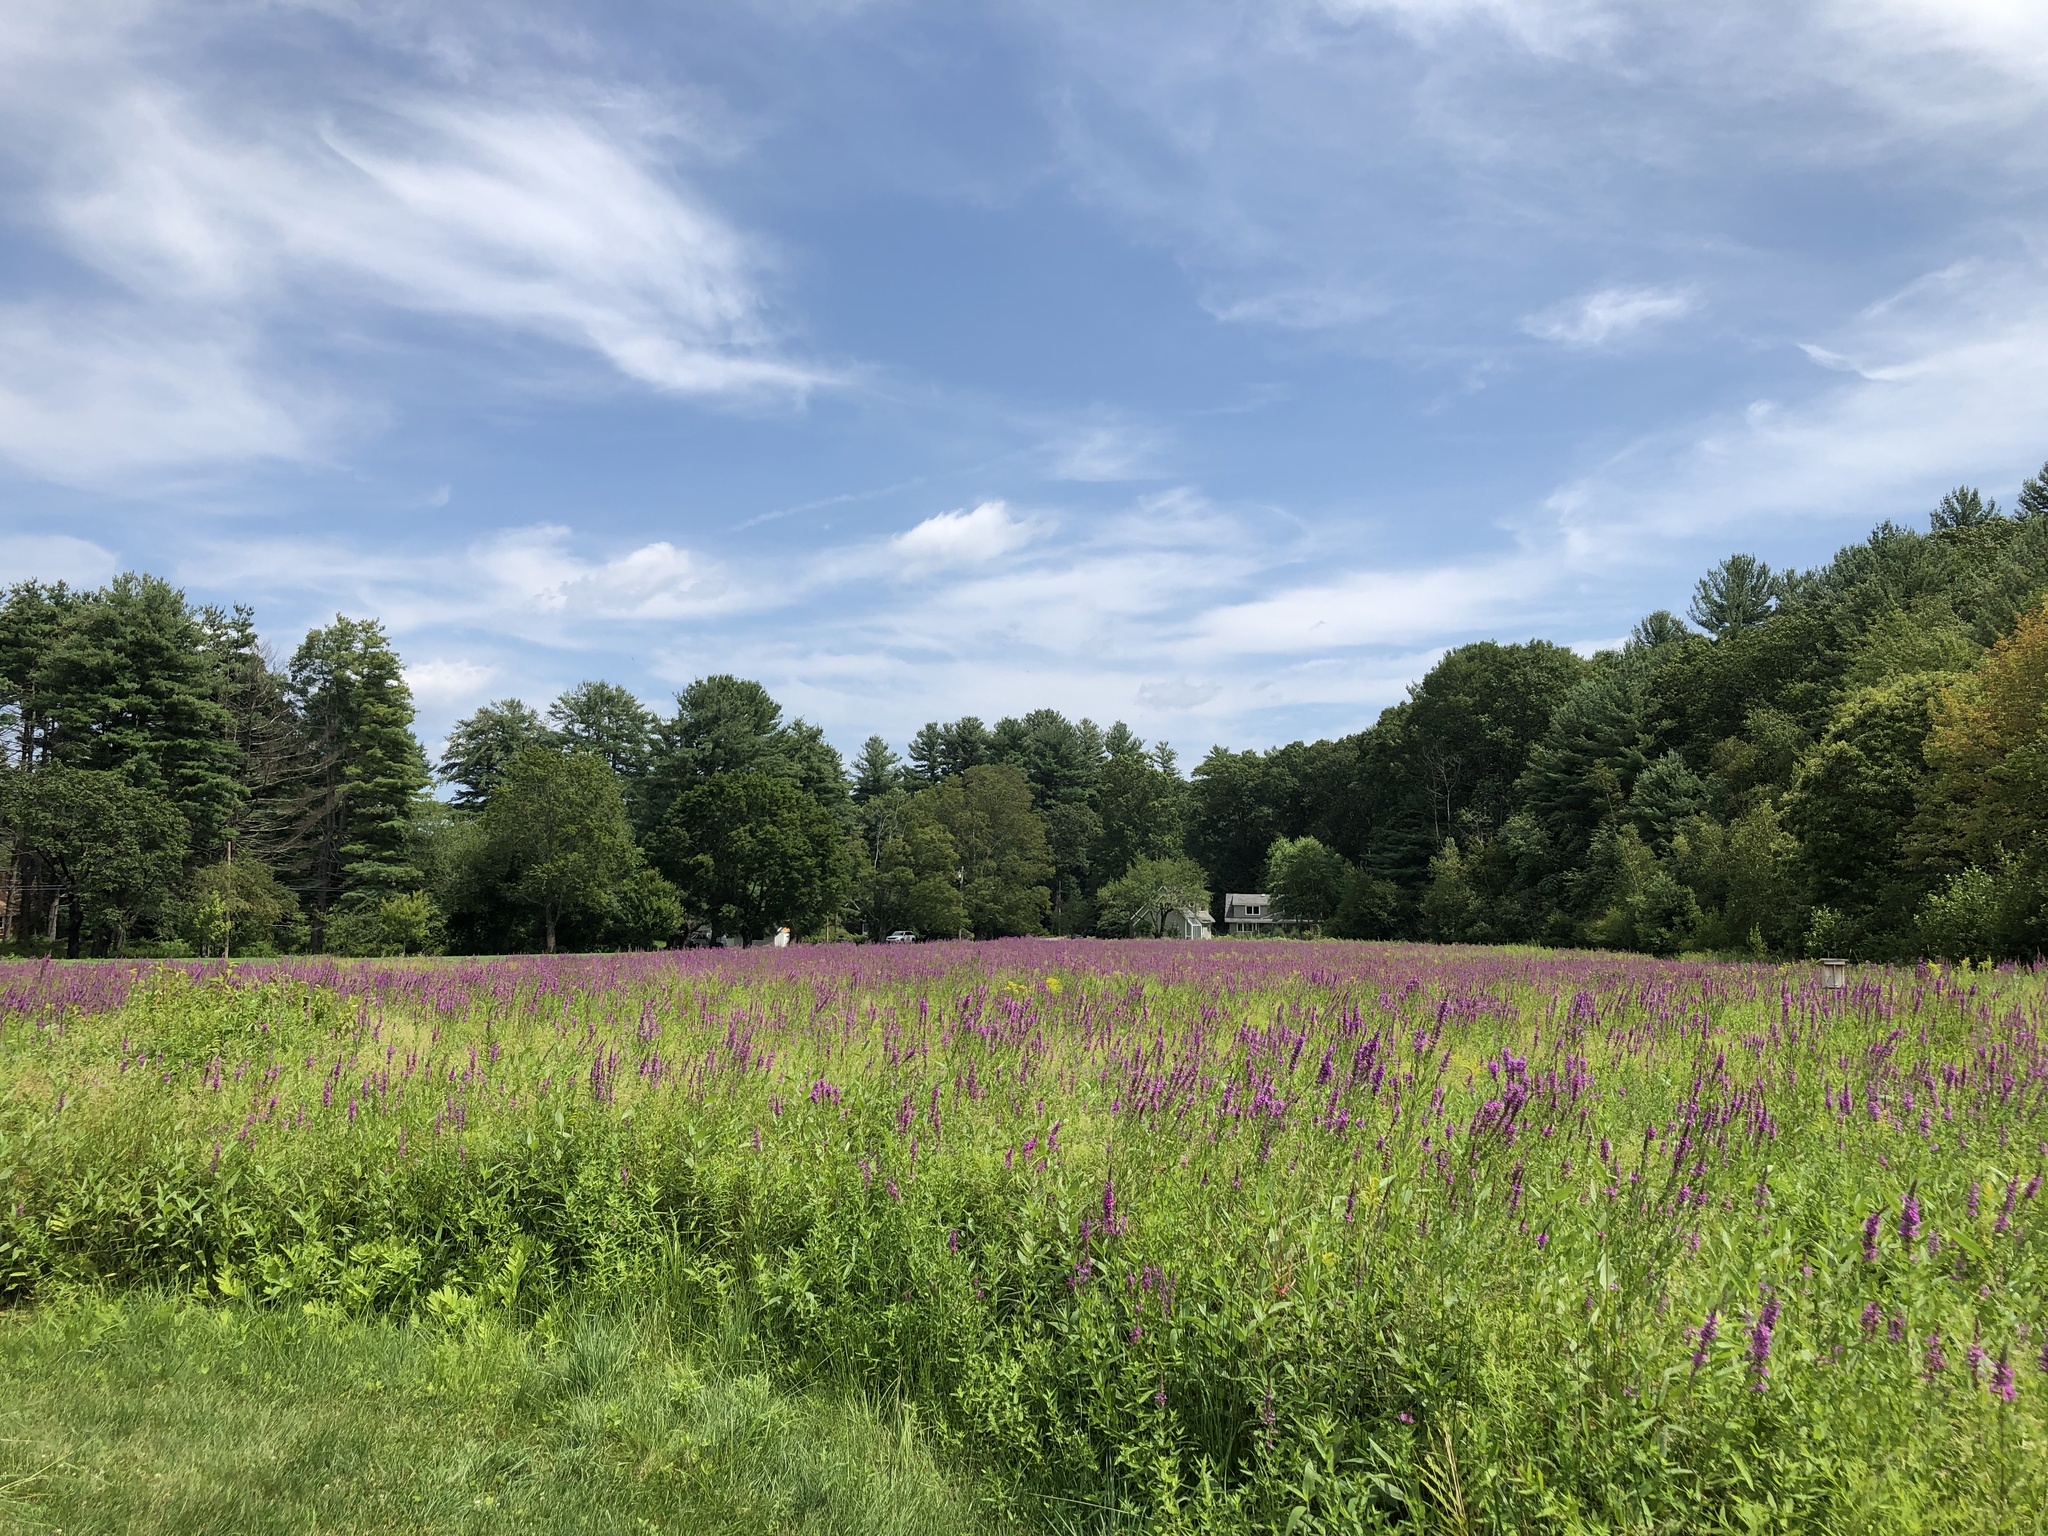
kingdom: Plantae
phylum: Tracheophyta
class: Magnoliopsida
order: Myrtales
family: Lythraceae
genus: Lythrum
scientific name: Lythrum salicaria
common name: Purple loosestrife
